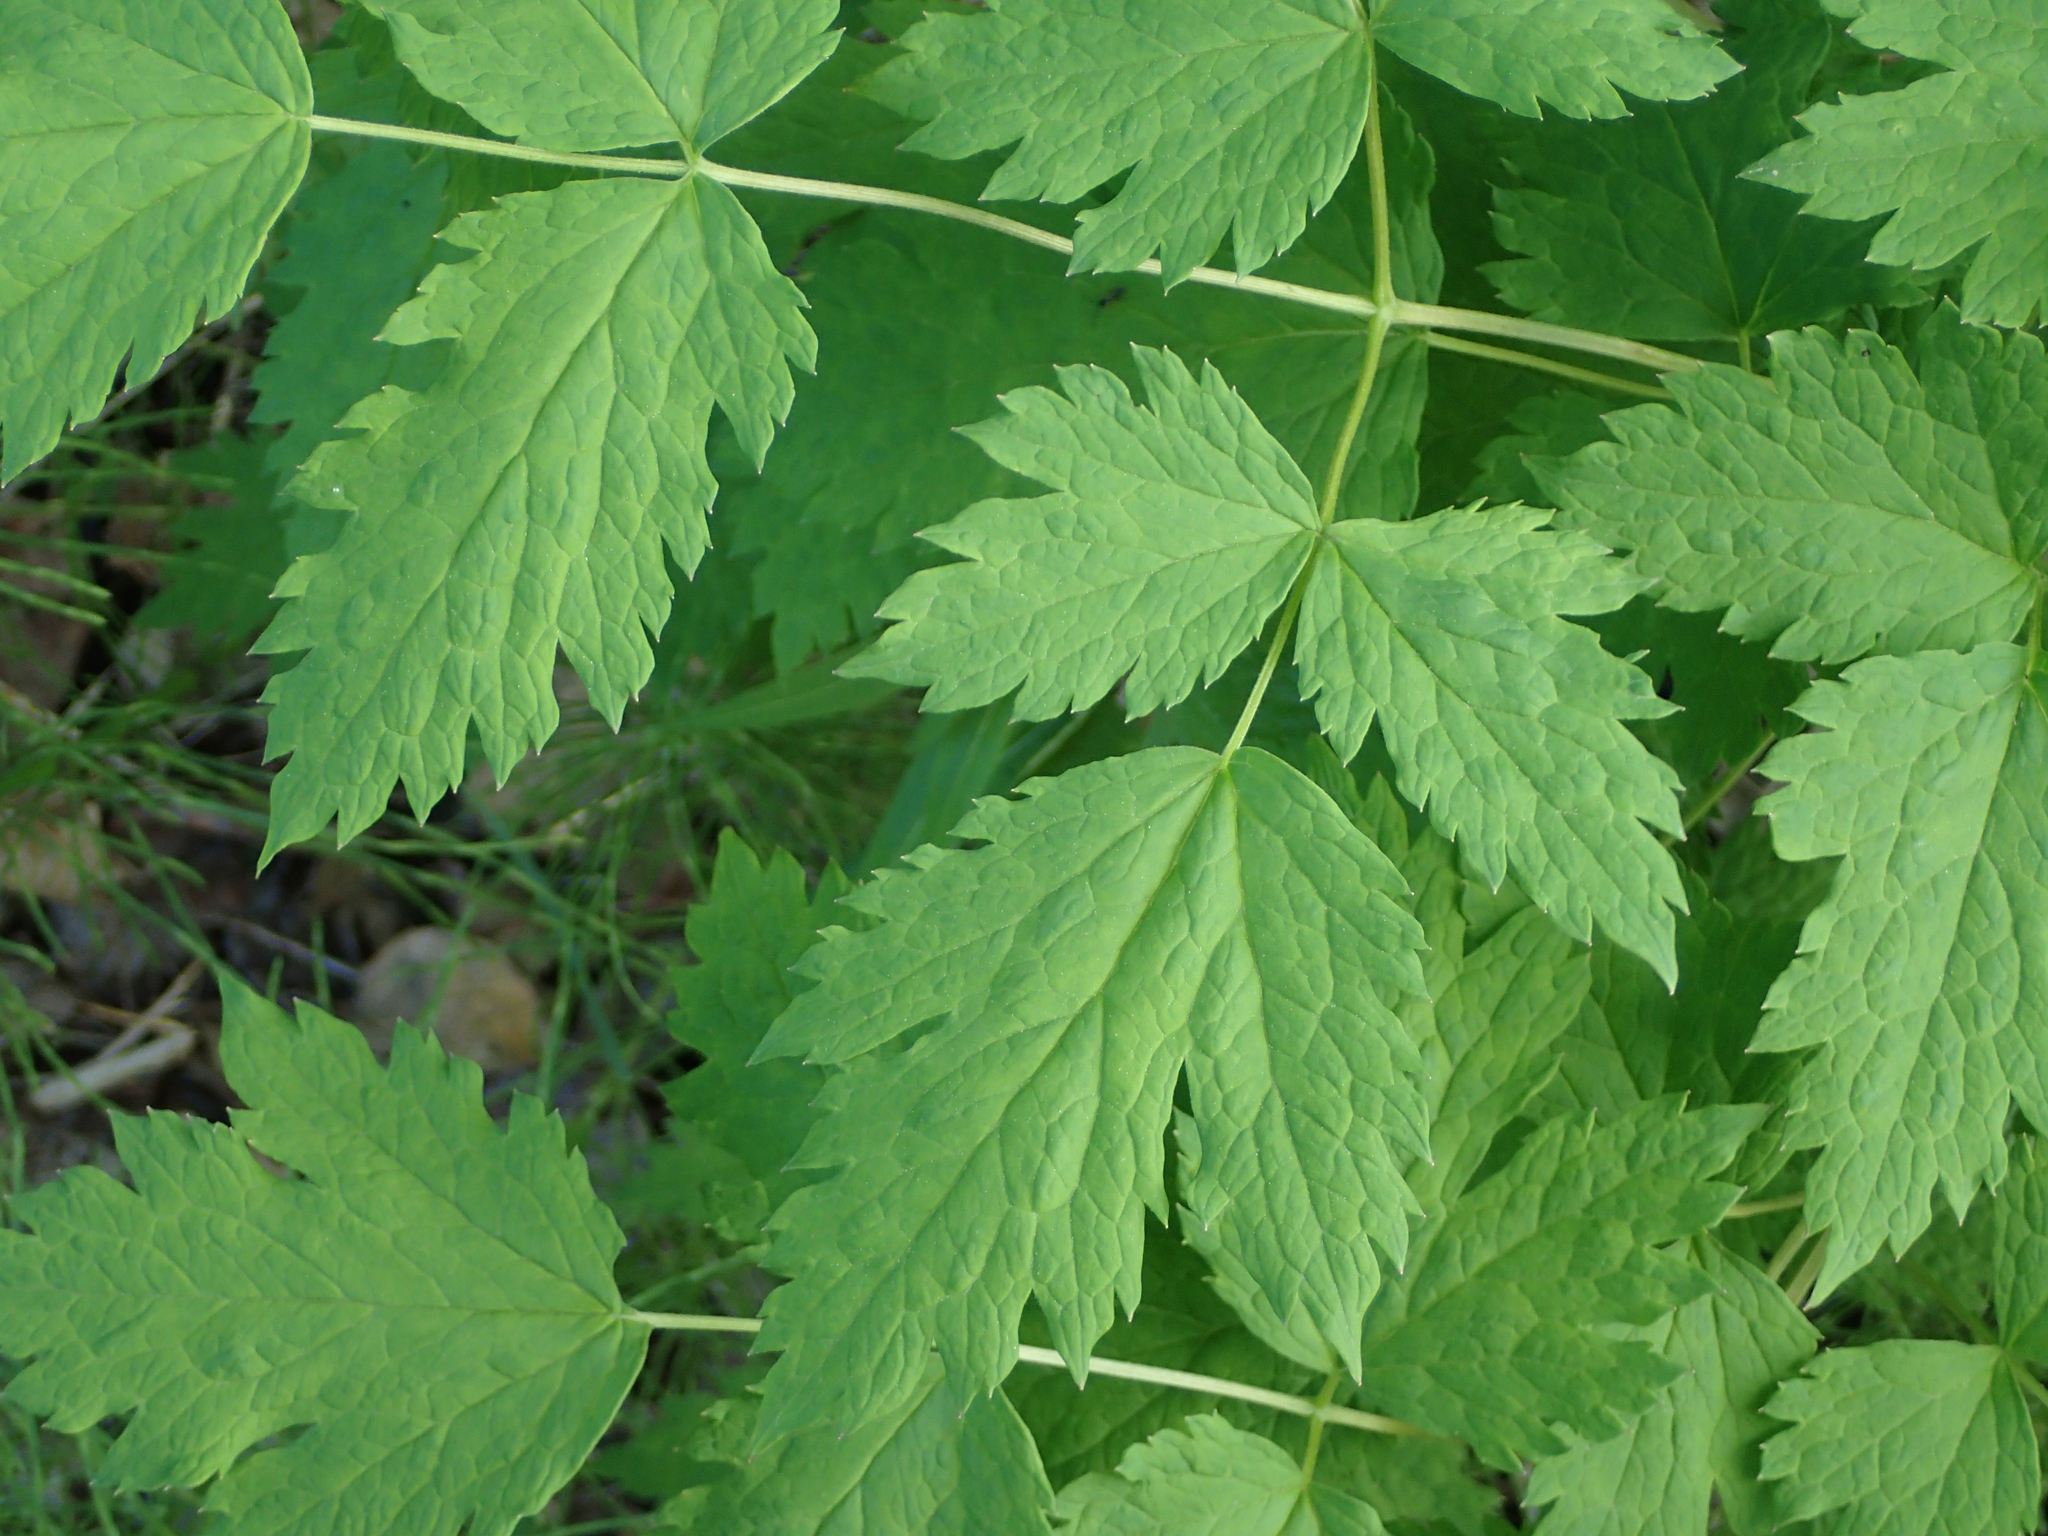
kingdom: Plantae
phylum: Tracheophyta
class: Magnoliopsida
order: Ranunculales
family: Ranunculaceae
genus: Actaea
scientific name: Actaea rubra
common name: Red baneberry
